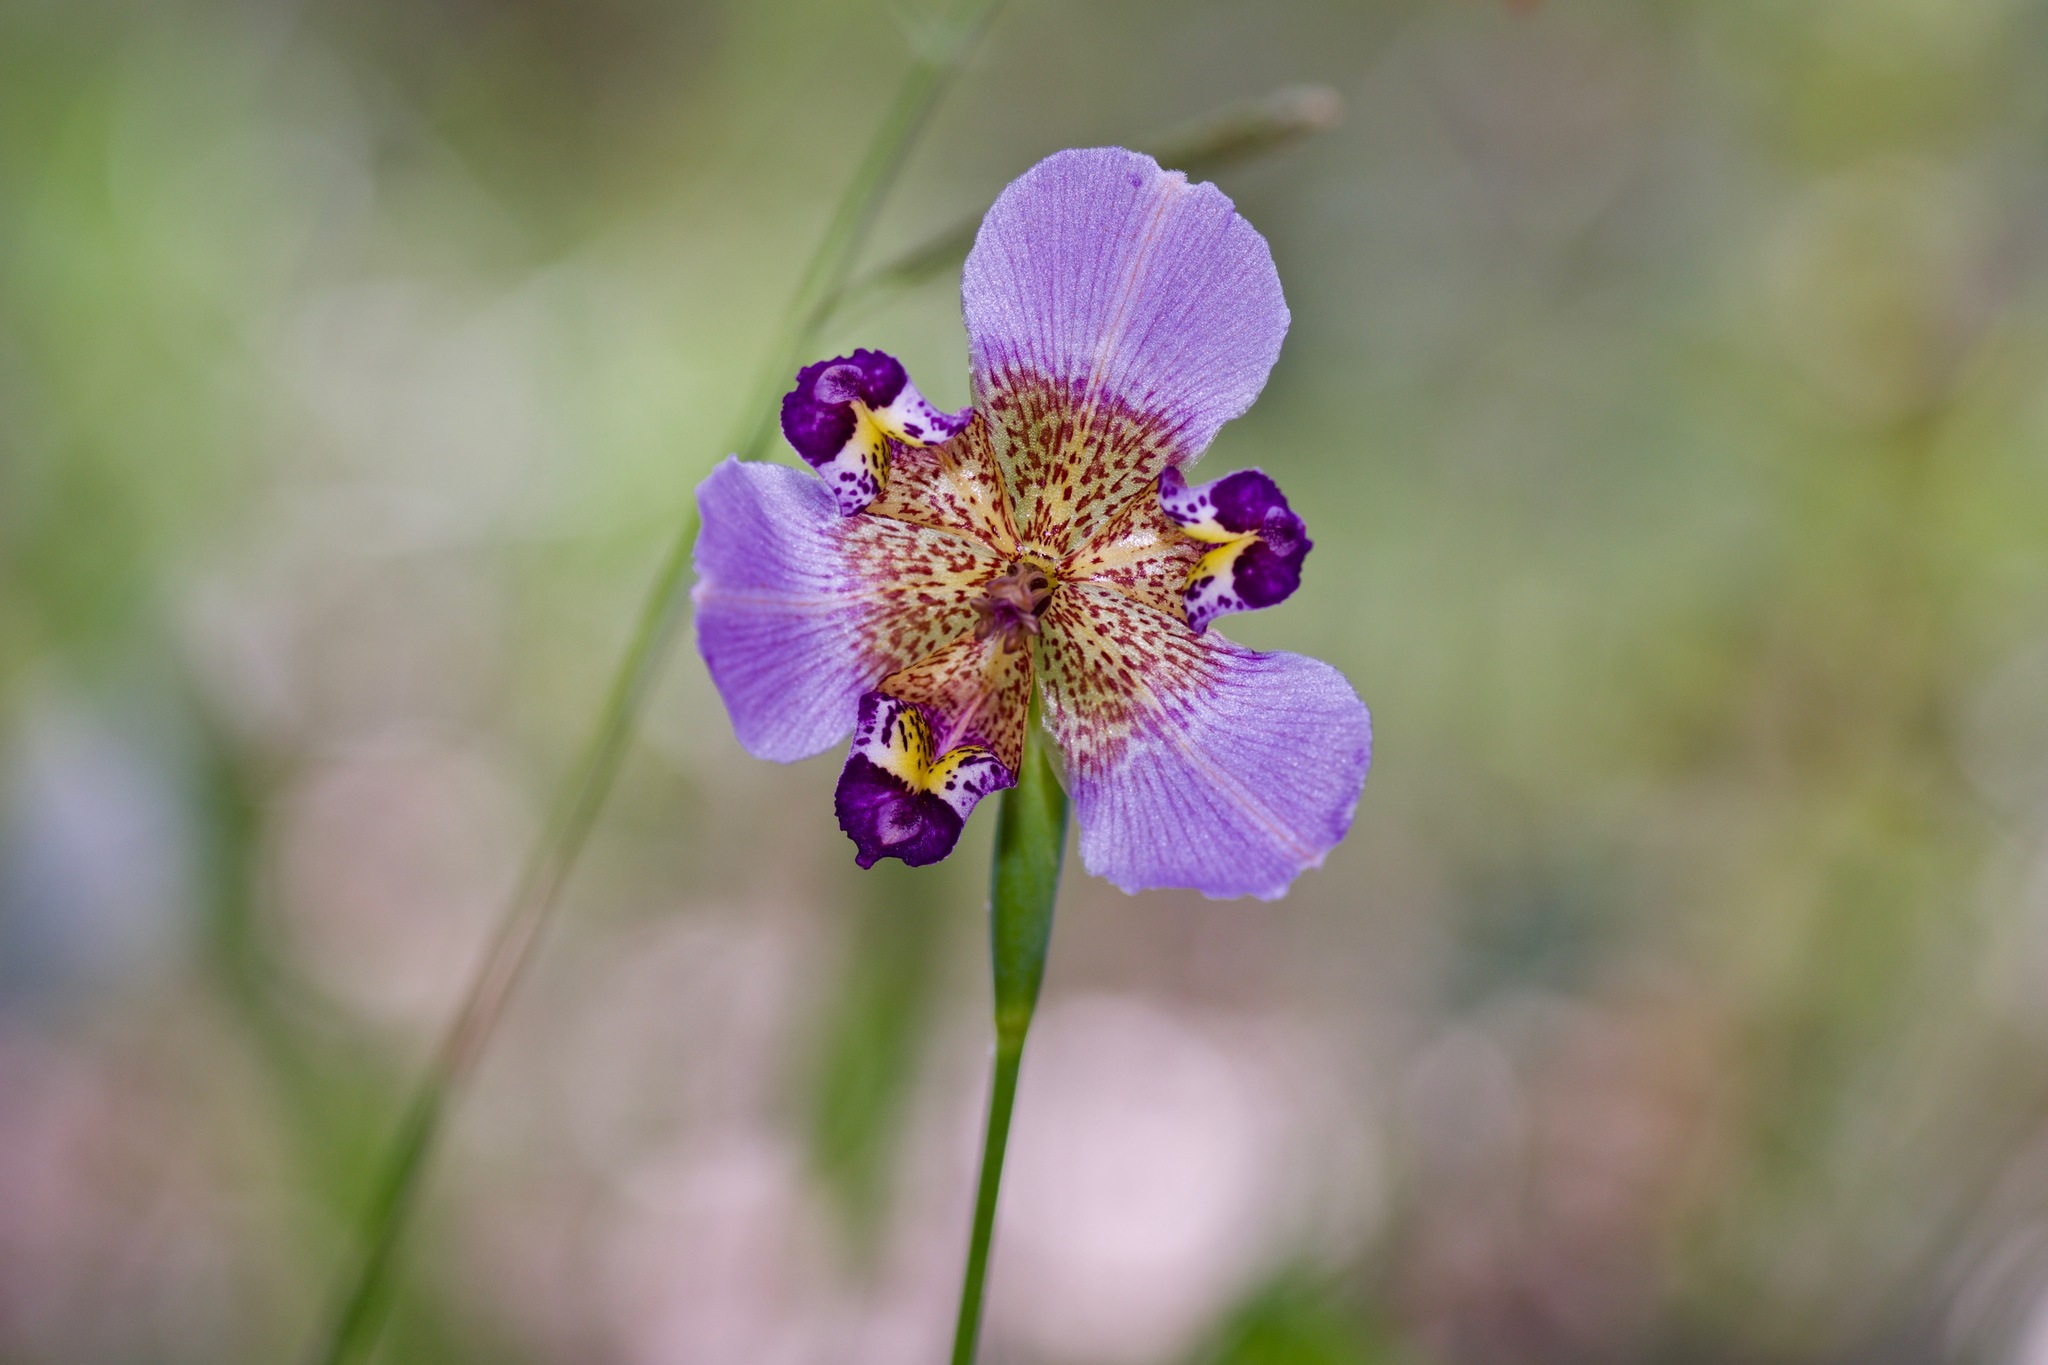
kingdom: Plantae
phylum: Tracheophyta
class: Liliopsida
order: Asparagales
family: Iridaceae
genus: Alophia
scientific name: Alophia drummondii
